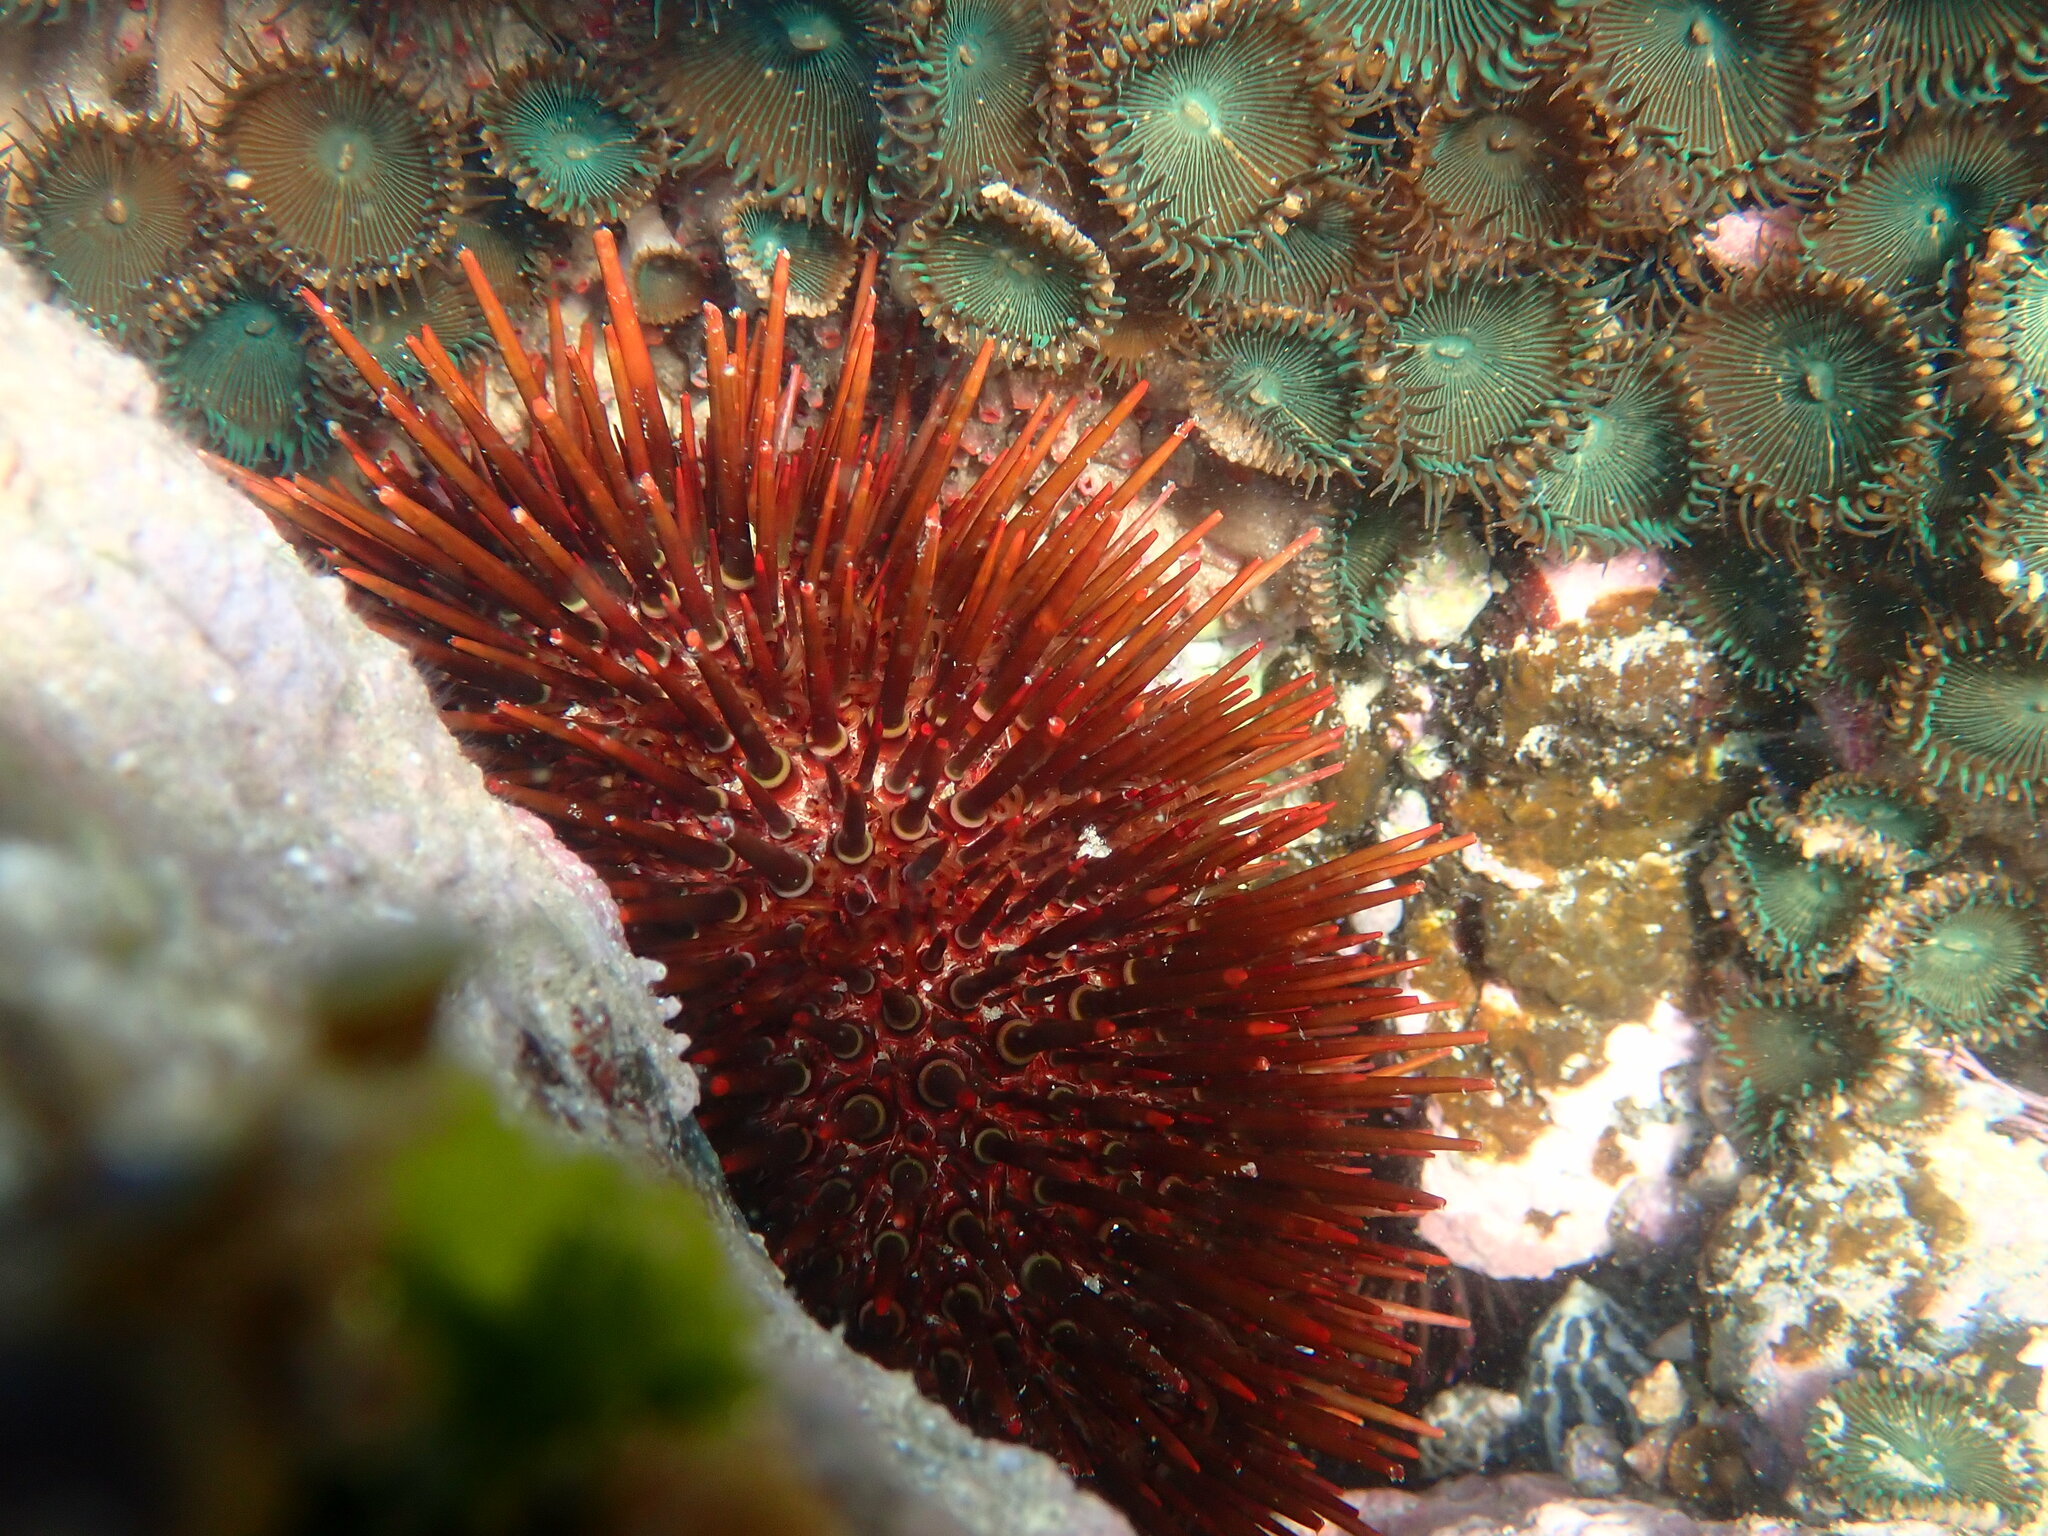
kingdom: Animalia
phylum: Echinodermata
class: Echinoidea
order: Camarodonta
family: Echinometridae
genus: Heliocidaris
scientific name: Heliocidaris tuberculata
